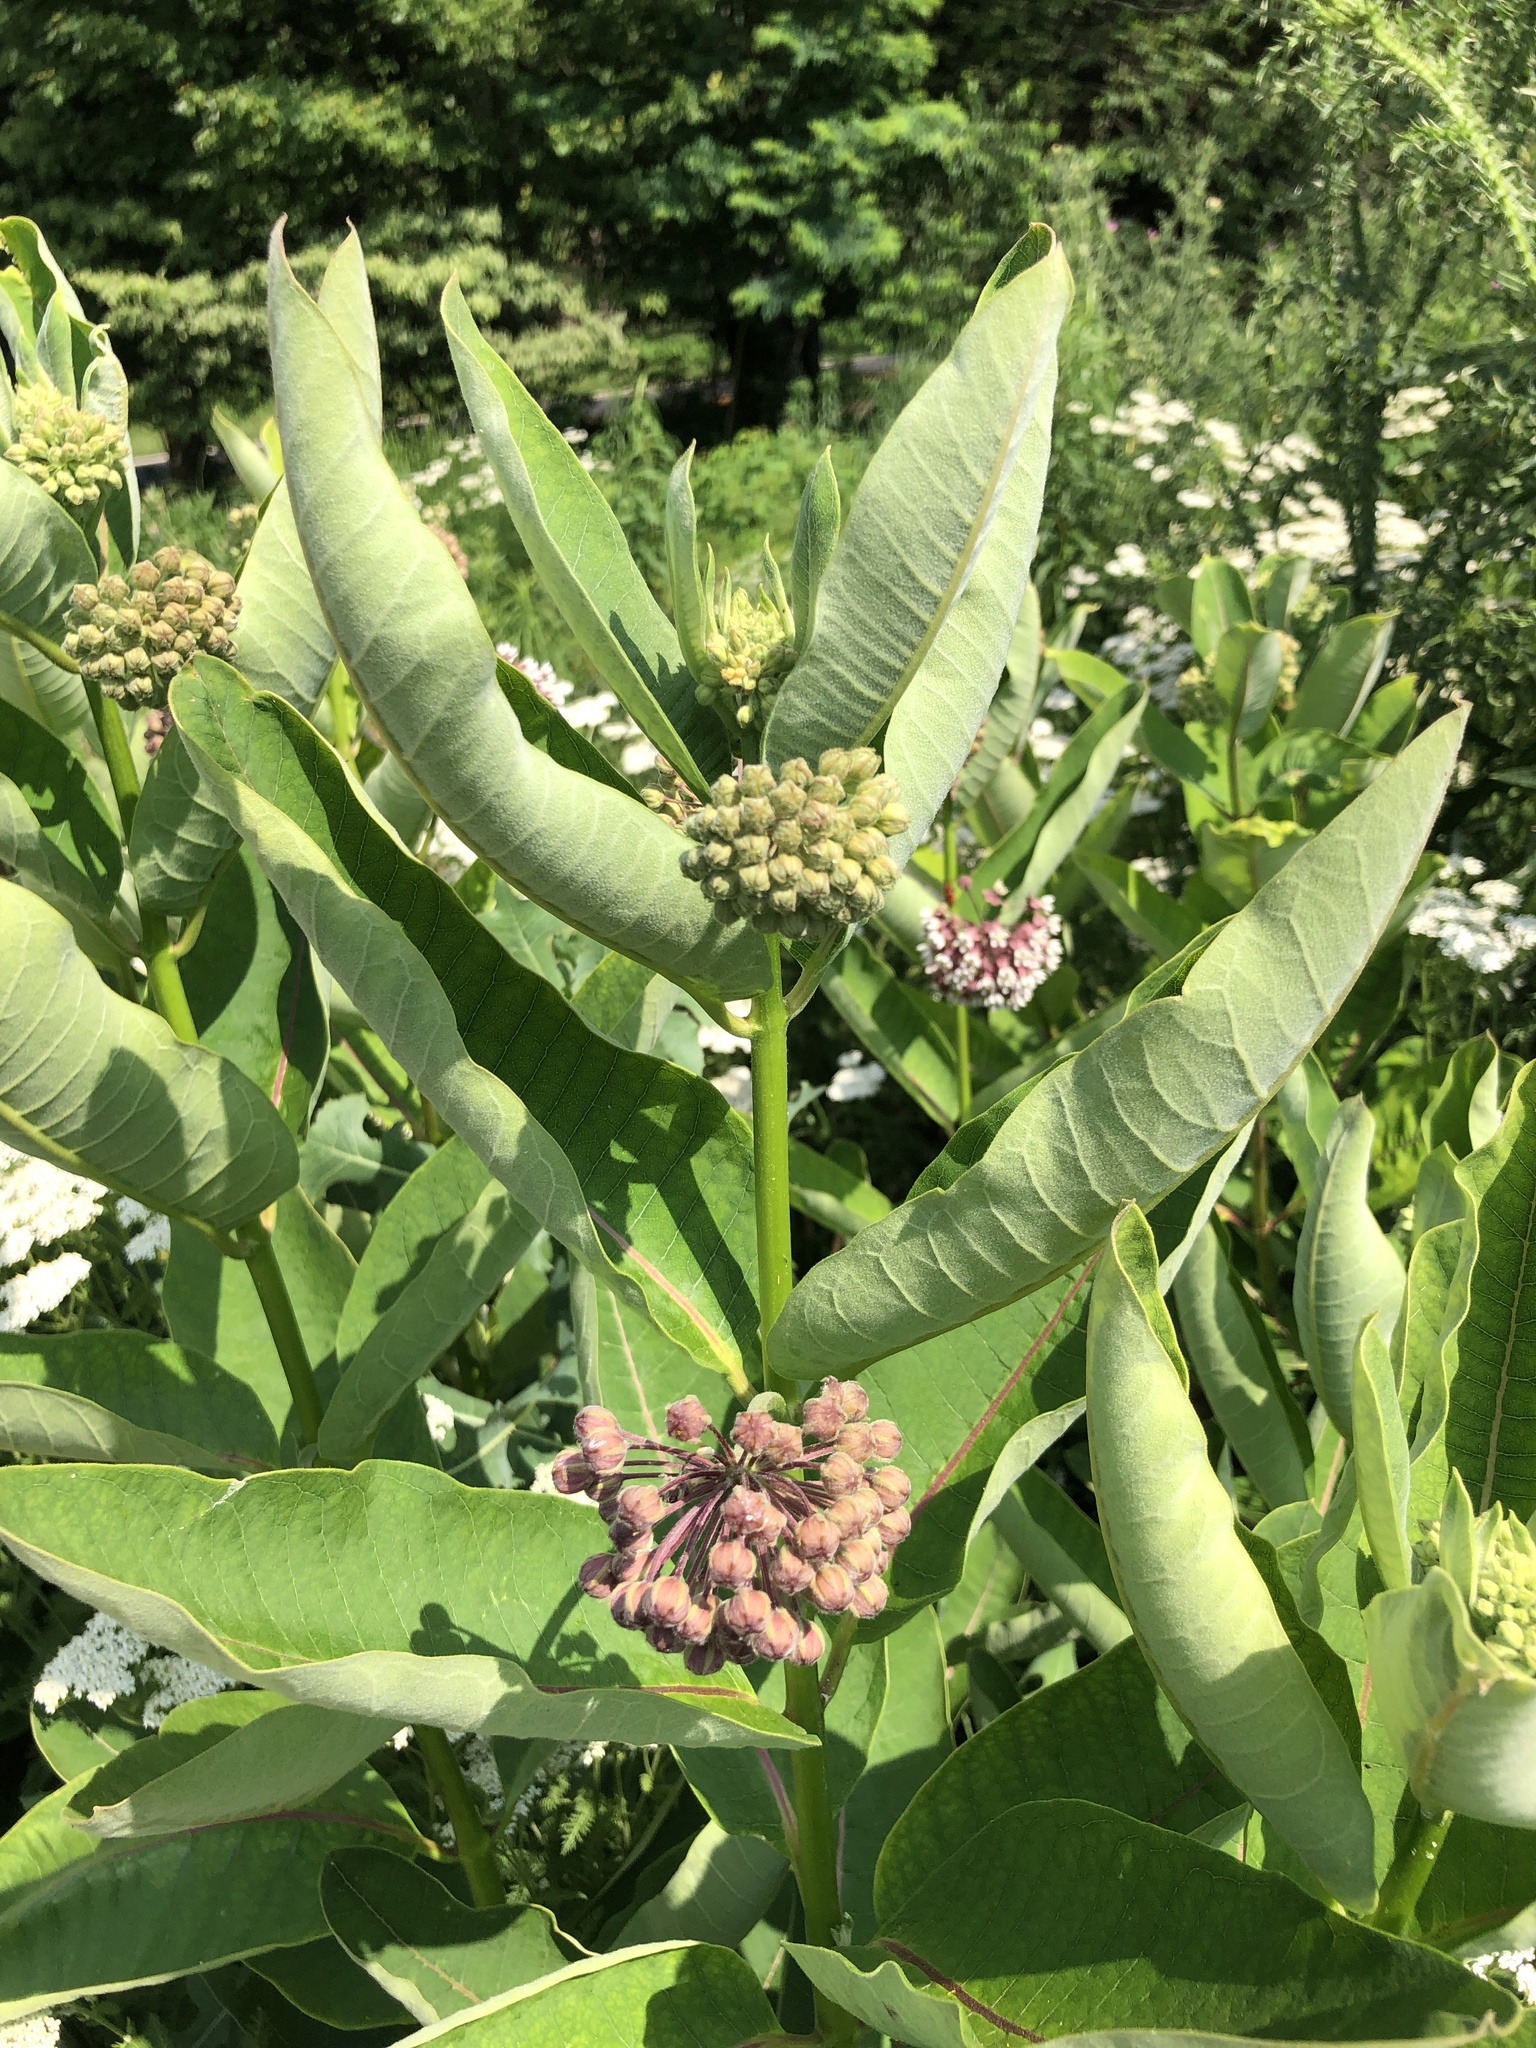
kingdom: Plantae
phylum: Tracheophyta
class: Magnoliopsida
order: Gentianales
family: Apocynaceae
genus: Asclepias
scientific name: Asclepias syriaca
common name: Common milkweed
